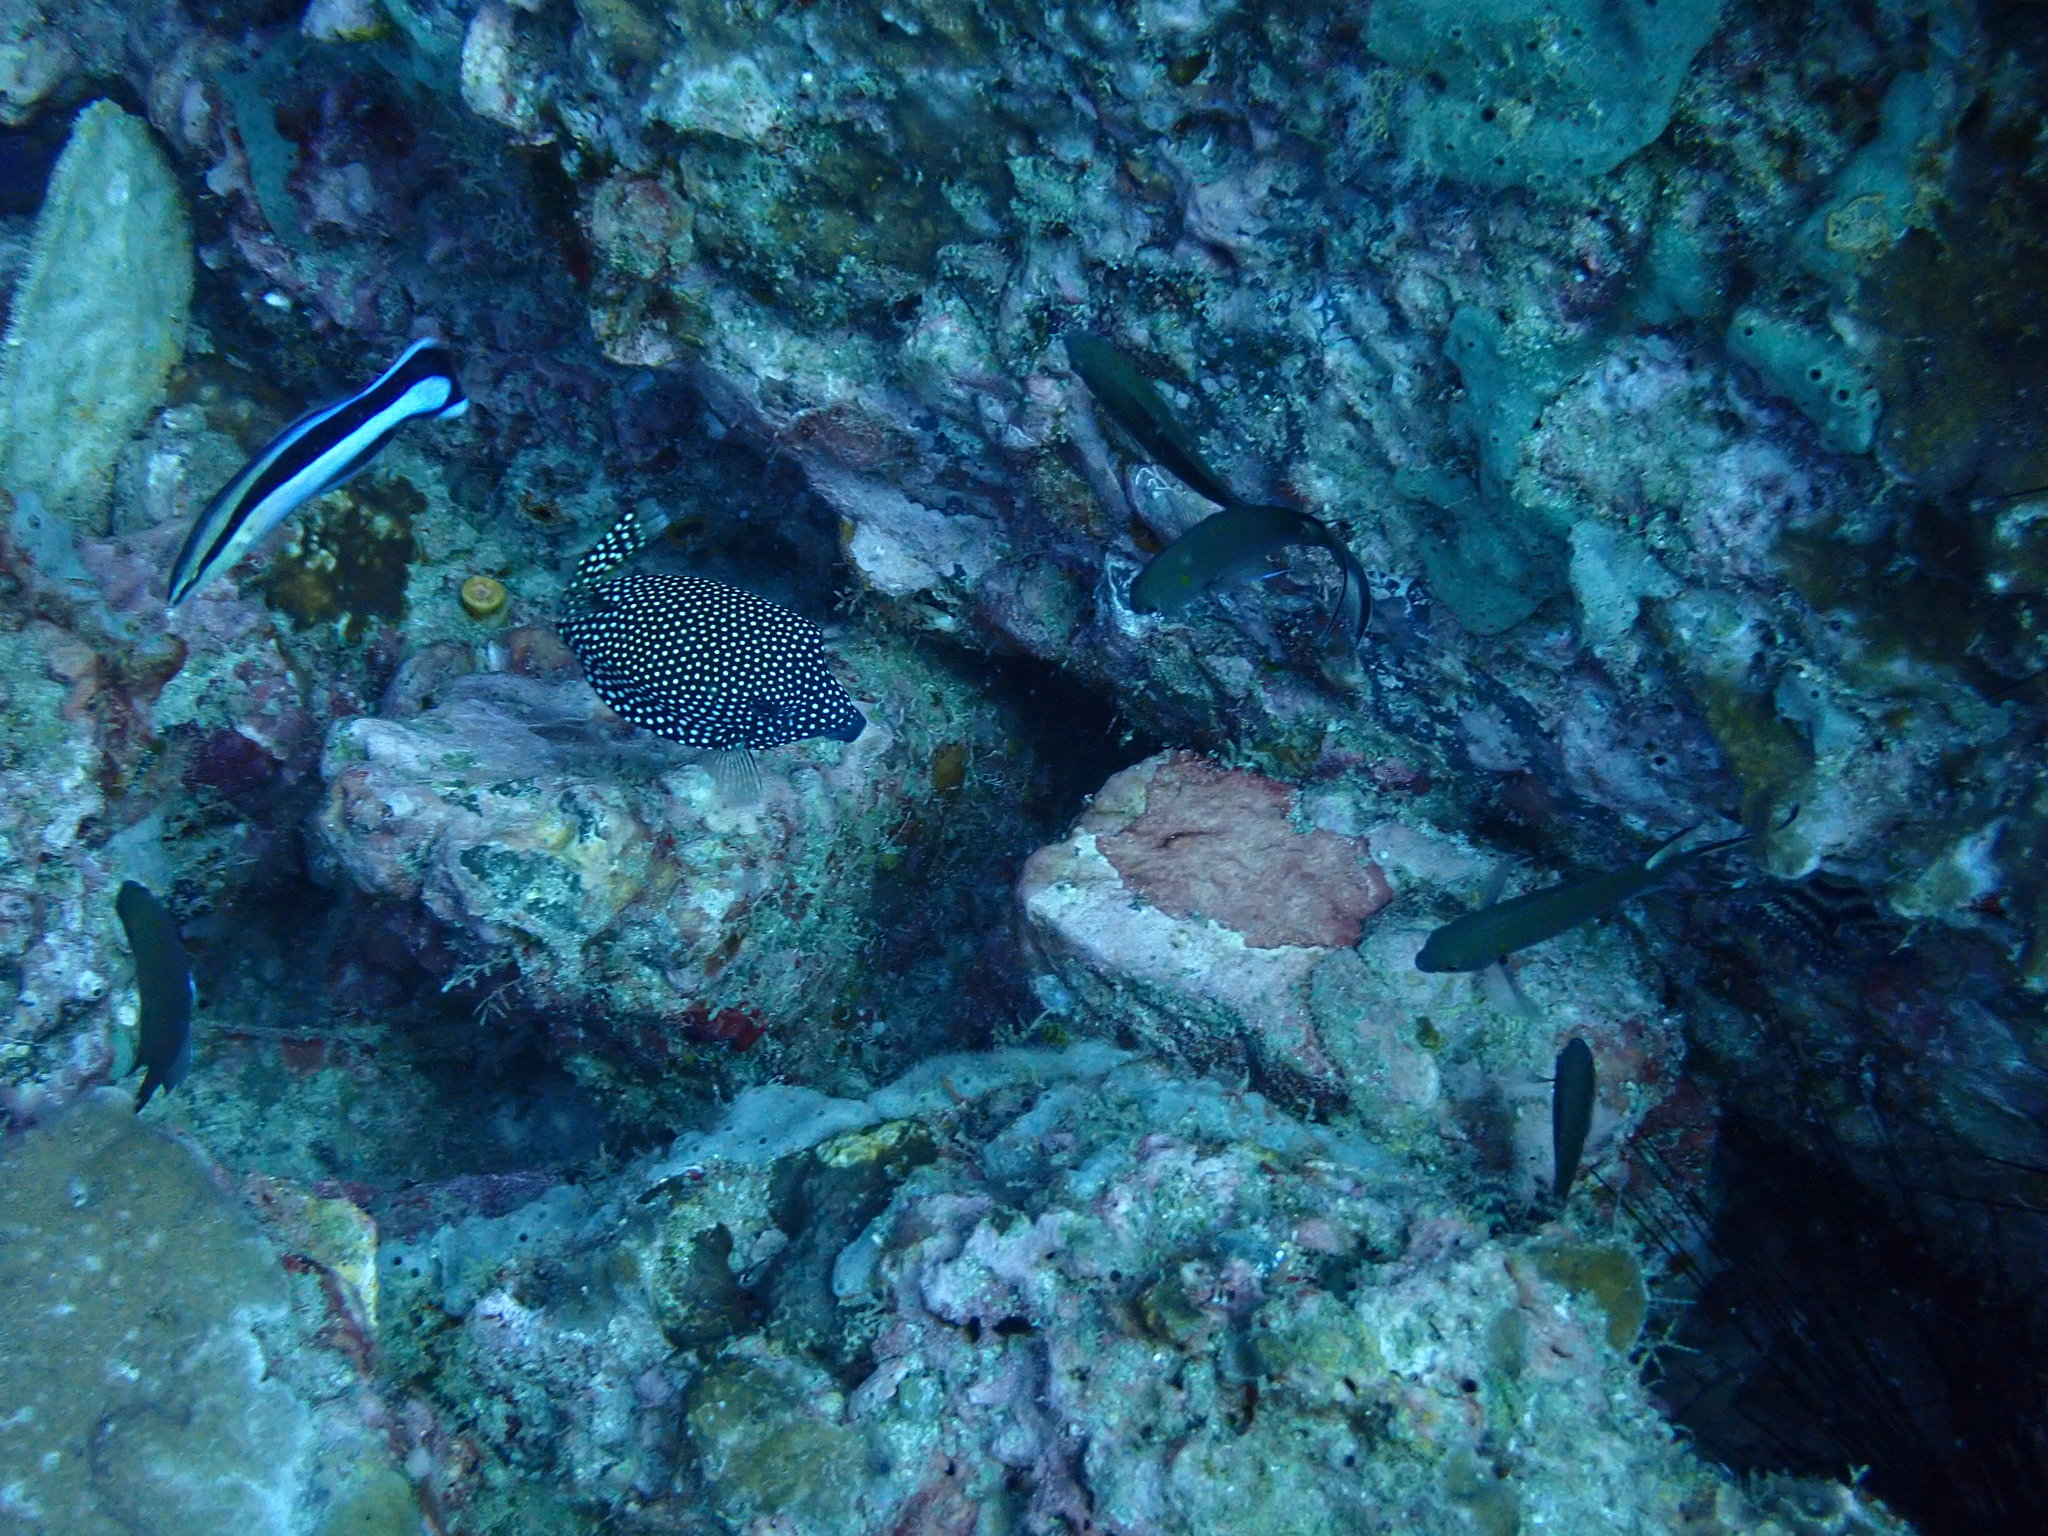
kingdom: Animalia
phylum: Chordata
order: Tetraodontiformes
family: Ostraciidae
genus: Ostracion
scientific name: Ostracion meleagris
